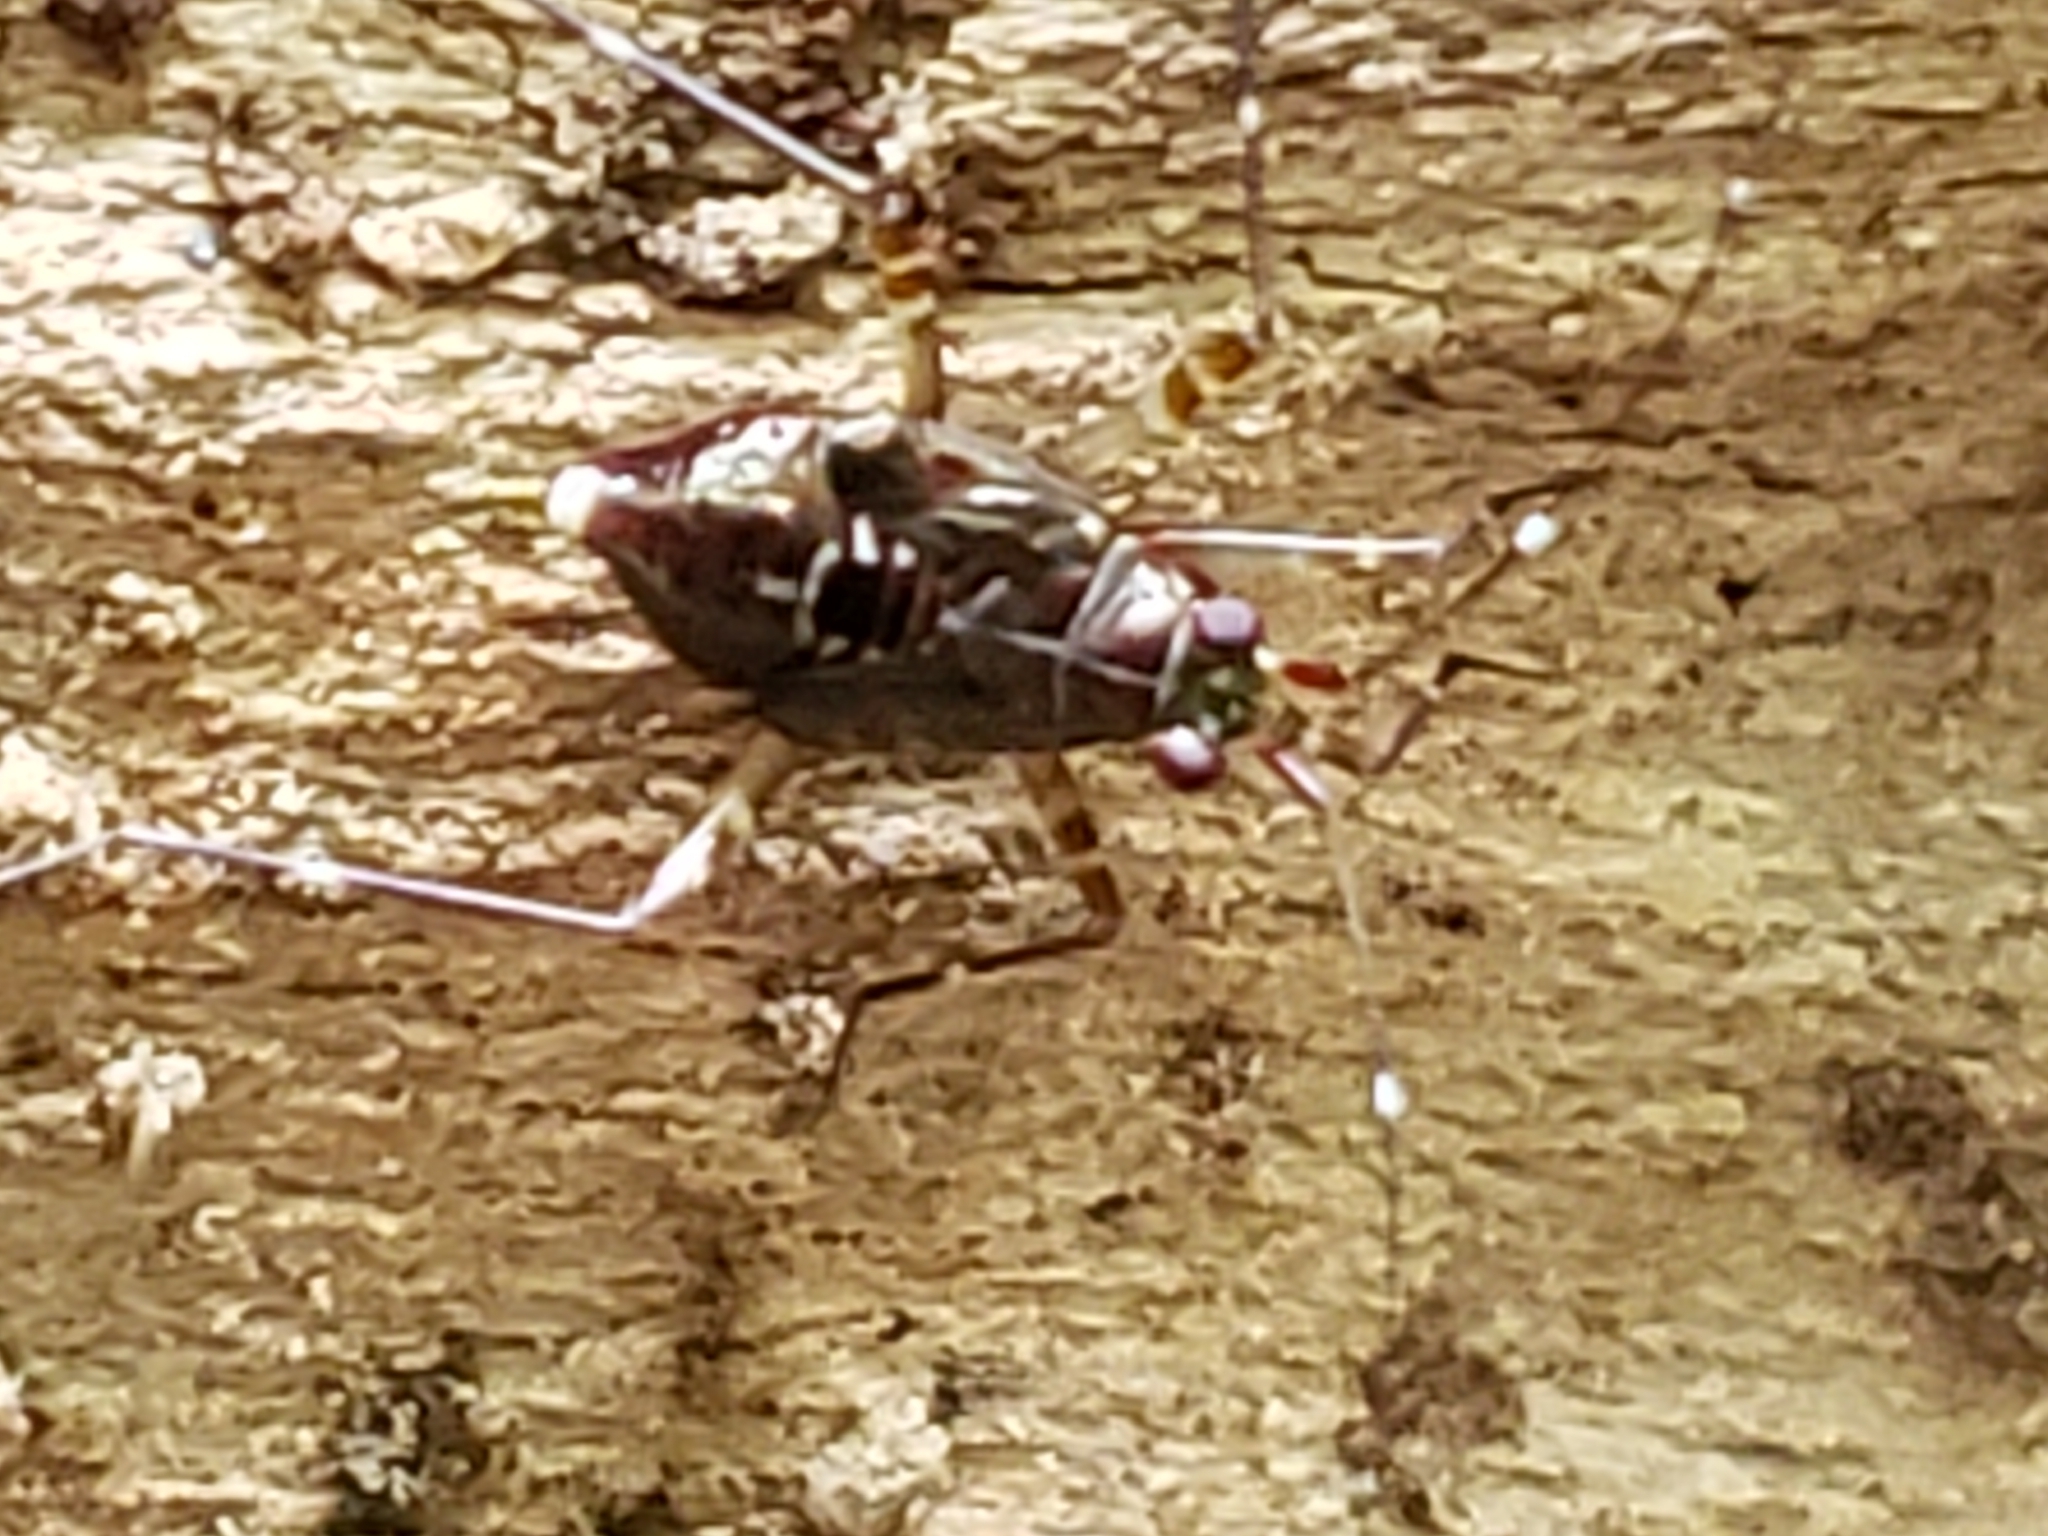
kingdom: Animalia
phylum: Arthropoda
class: Insecta
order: Hemiptera
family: Miridae
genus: Cylapus
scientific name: Cylapus tenuicornis
